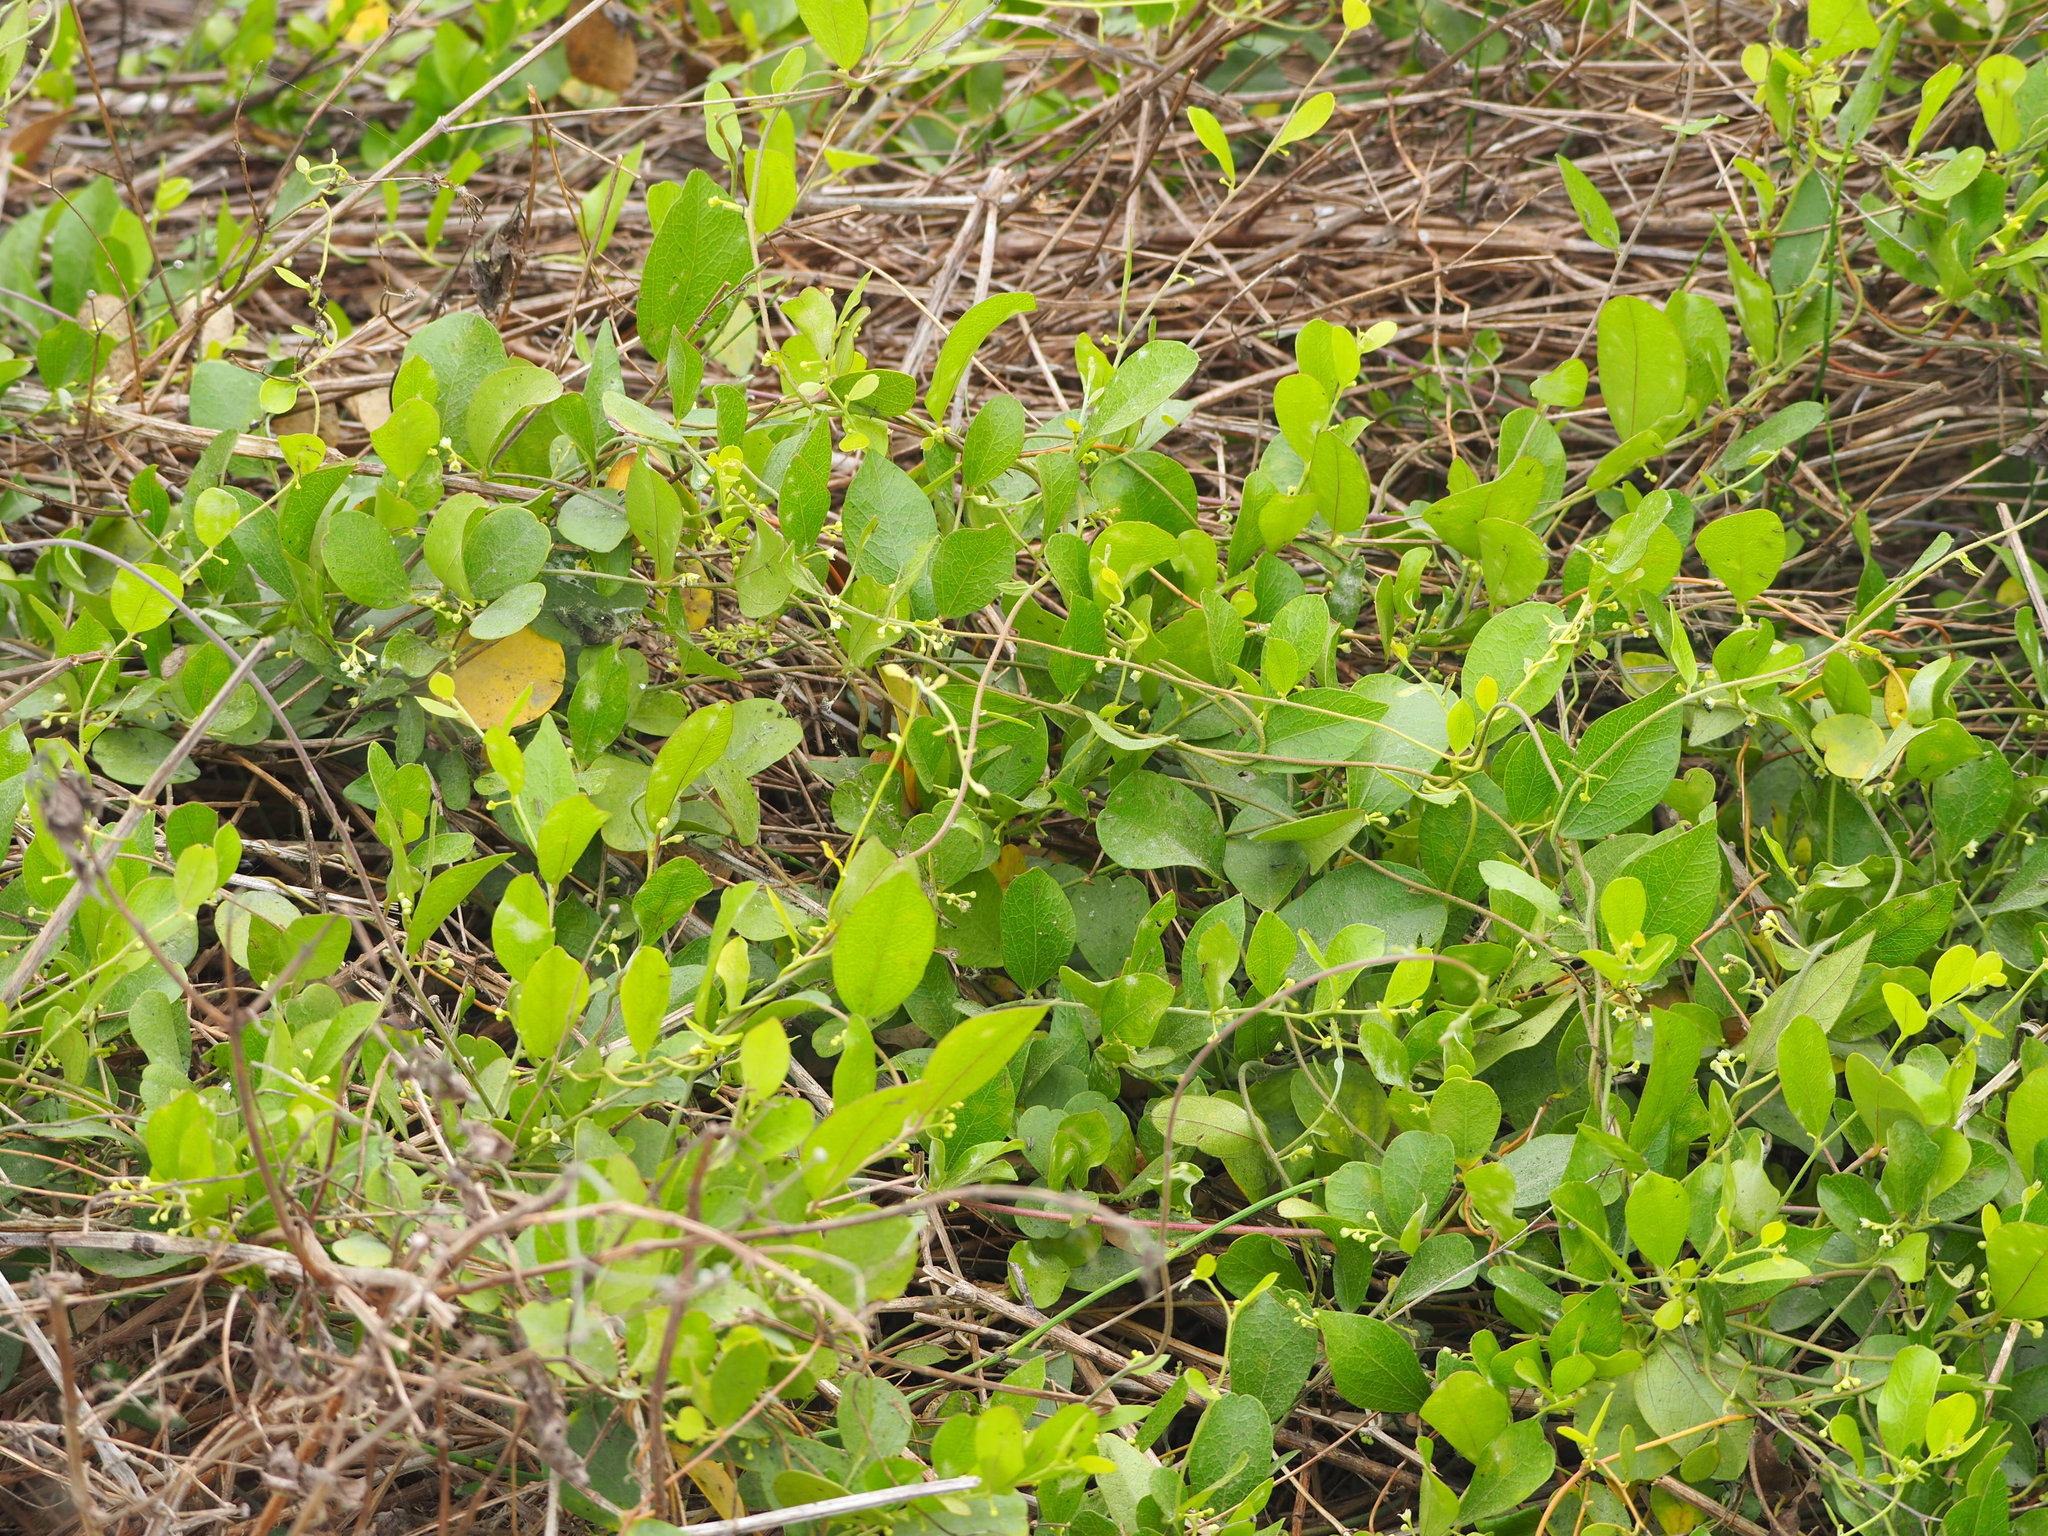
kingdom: Plantae
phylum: Tracheophyta
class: Magnoliopsida
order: Ranunculales
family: Menispermaceae
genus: Cocculus
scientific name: Cocculus orbiculatus
